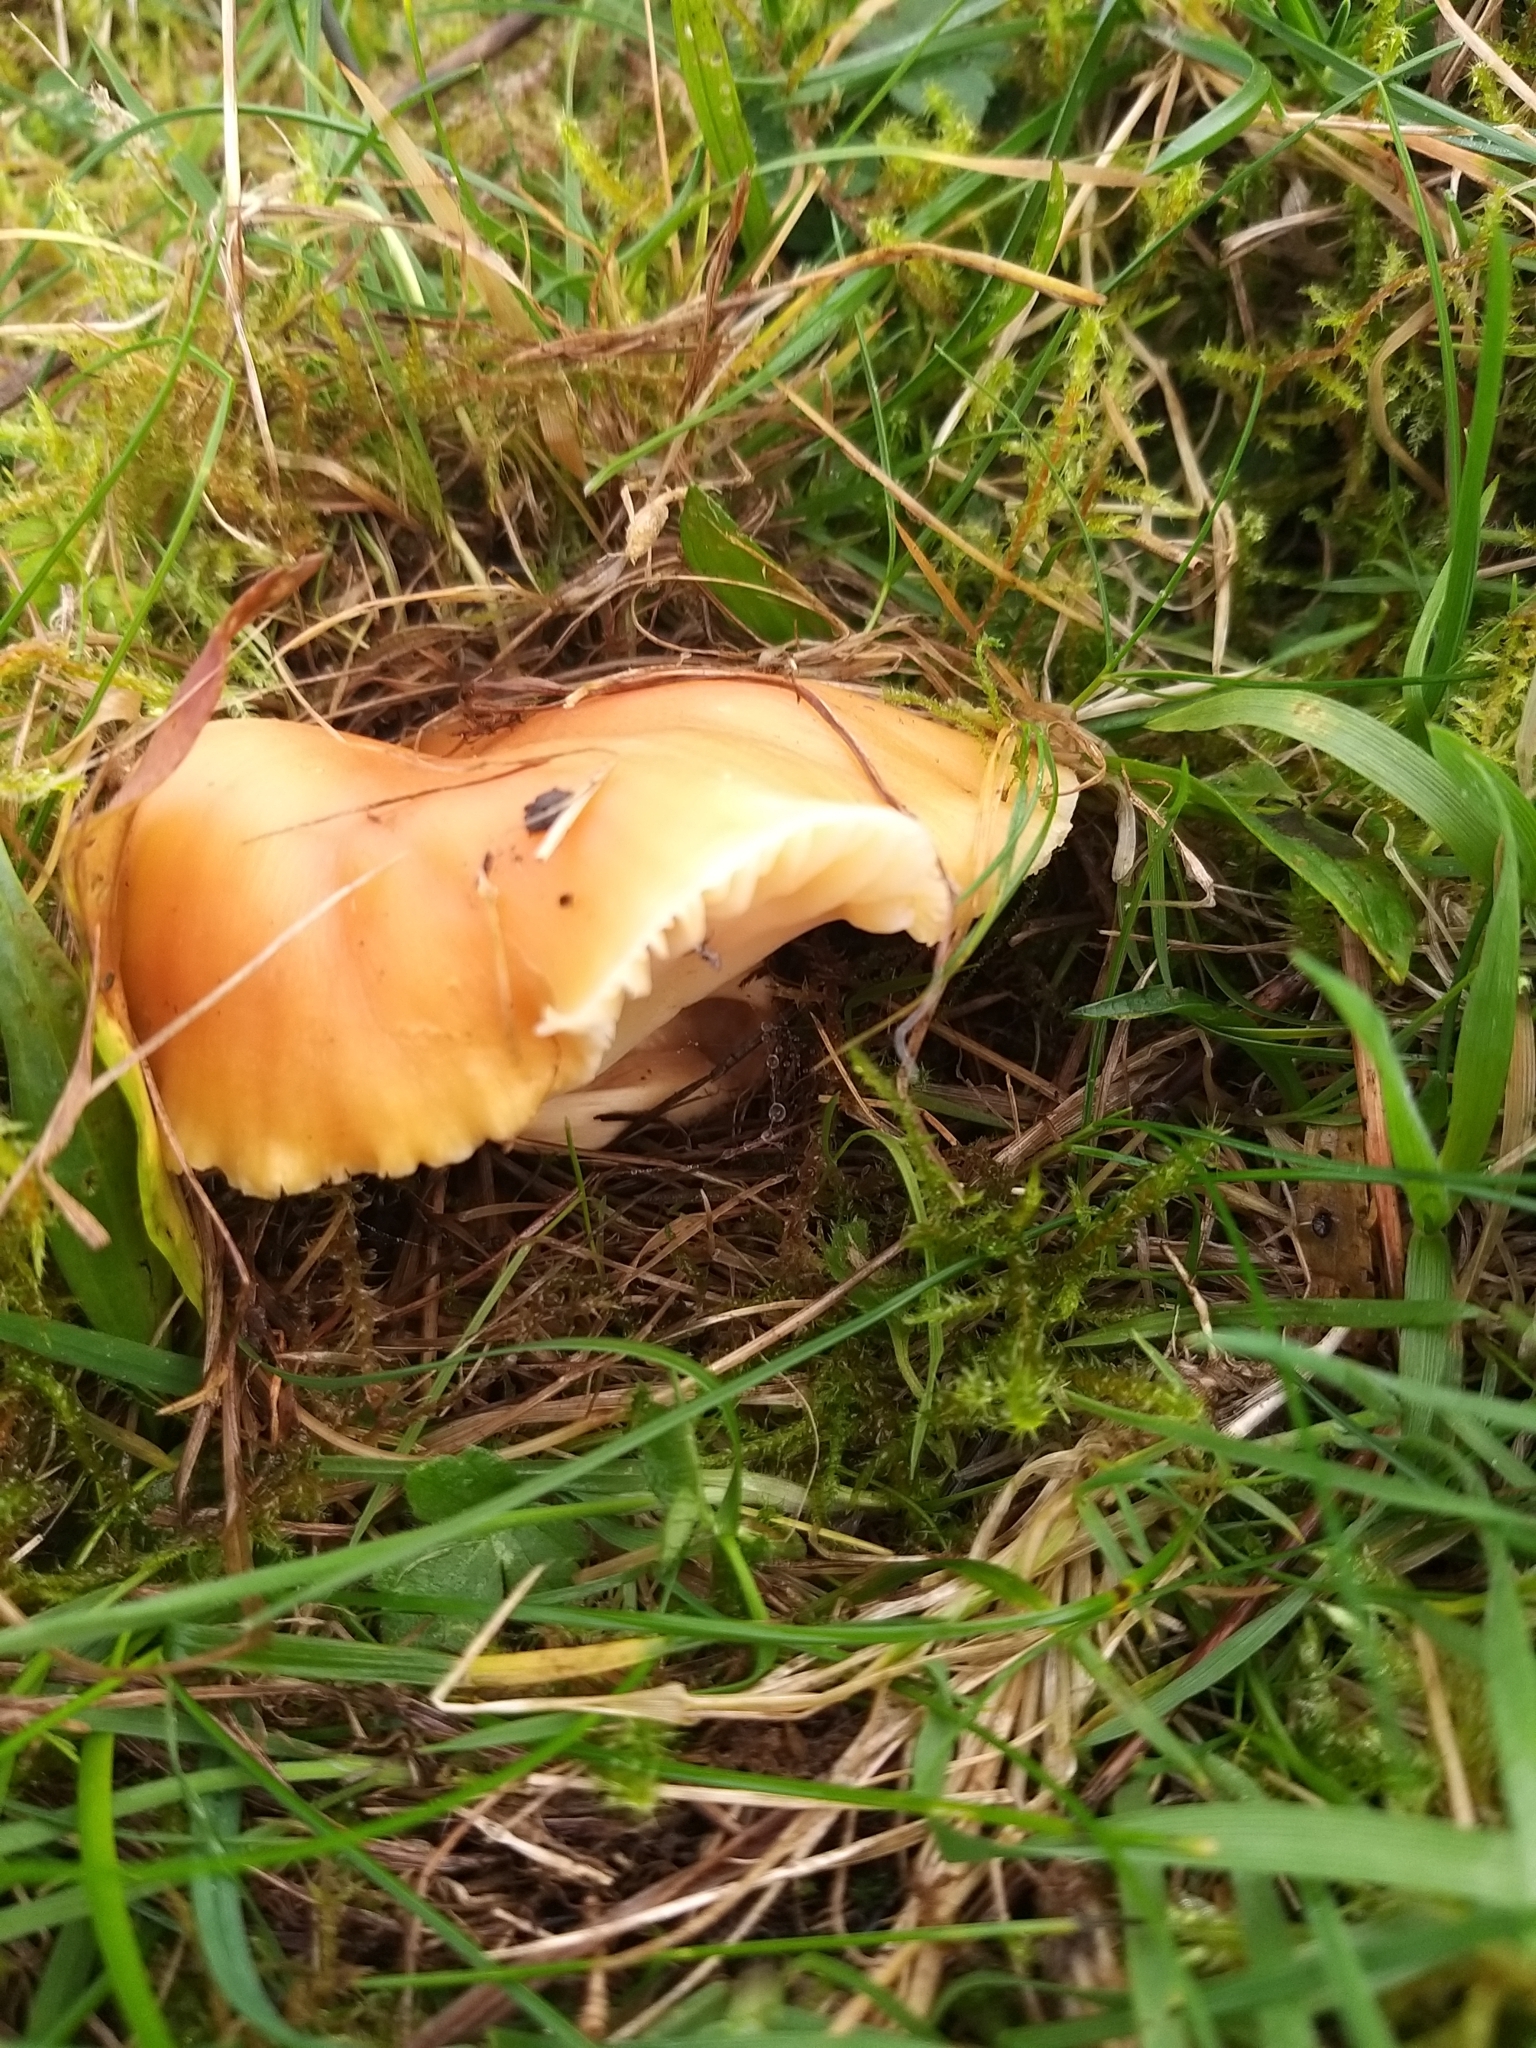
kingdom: Fungi
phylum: Basidiomycota
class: Agaricomycetes
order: Agaricales
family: Hygrophoraceae
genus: Cuphophyllus
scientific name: Cuphophyllus pratensis
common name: Meadow waxcap
